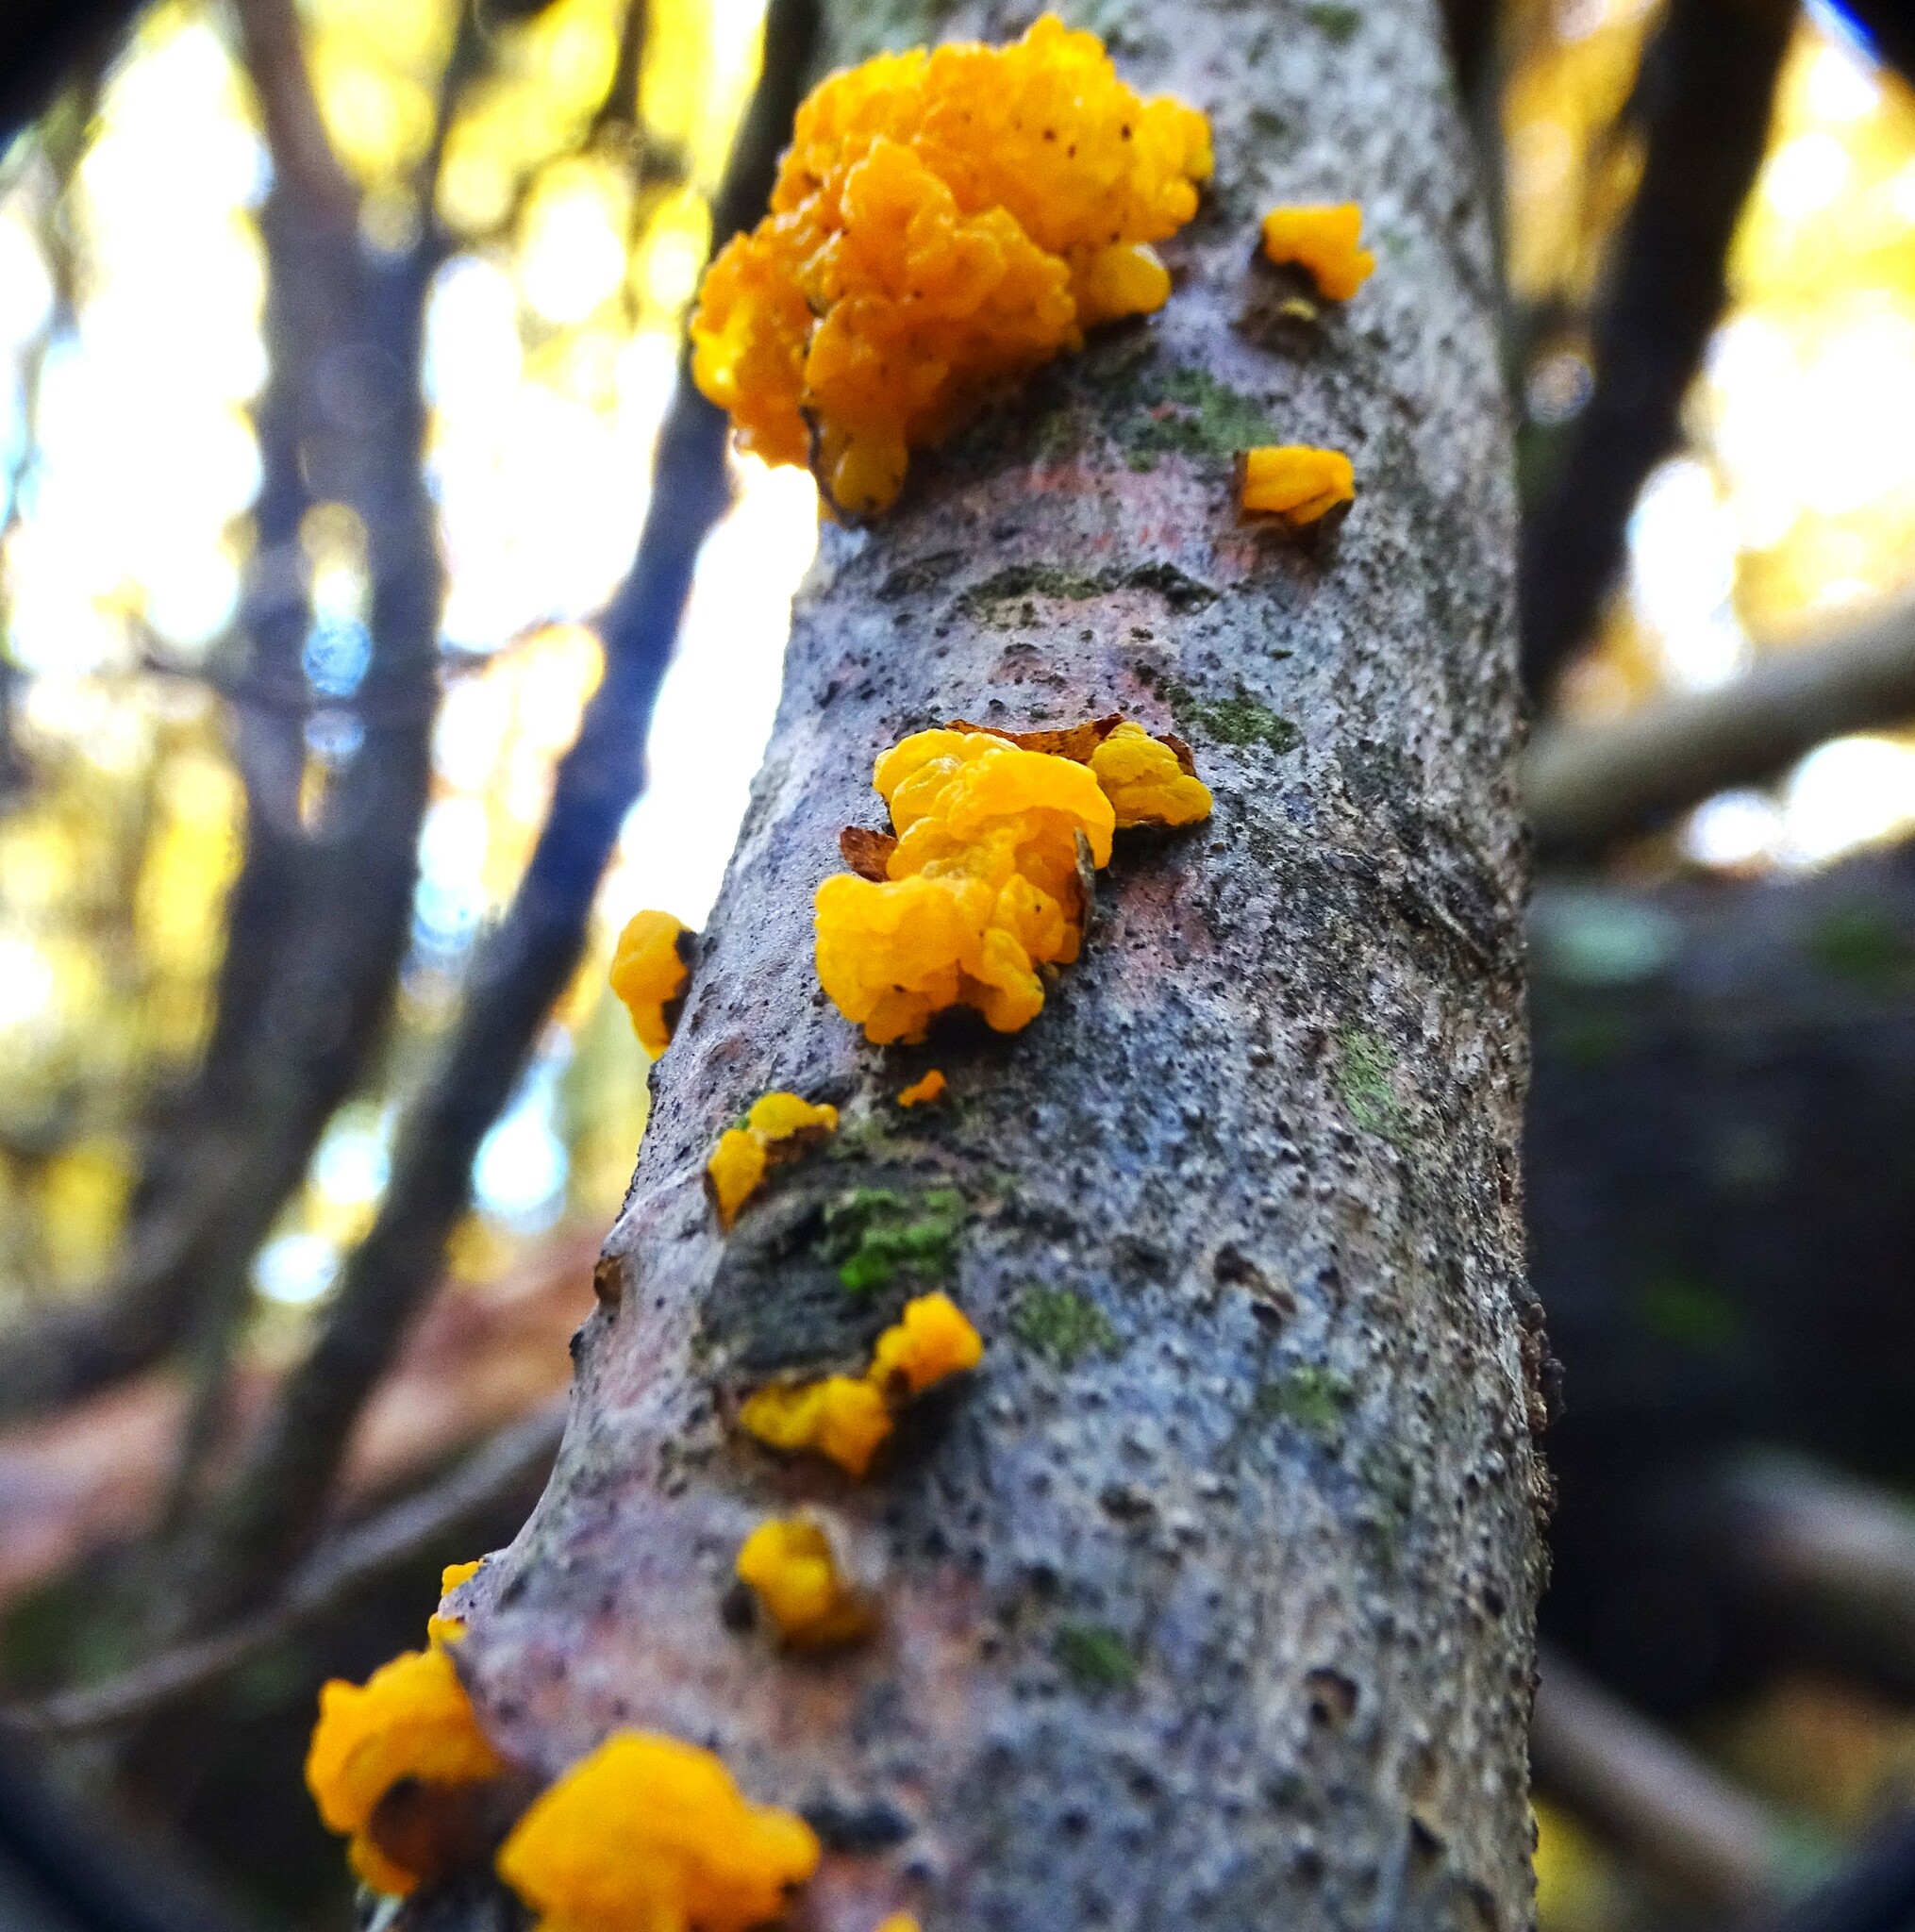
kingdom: Fungi
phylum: Basidiomycota
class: Tremellomycetes
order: Tremellales
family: Tremellaceae
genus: Tremella
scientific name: Tremella mesenterica
